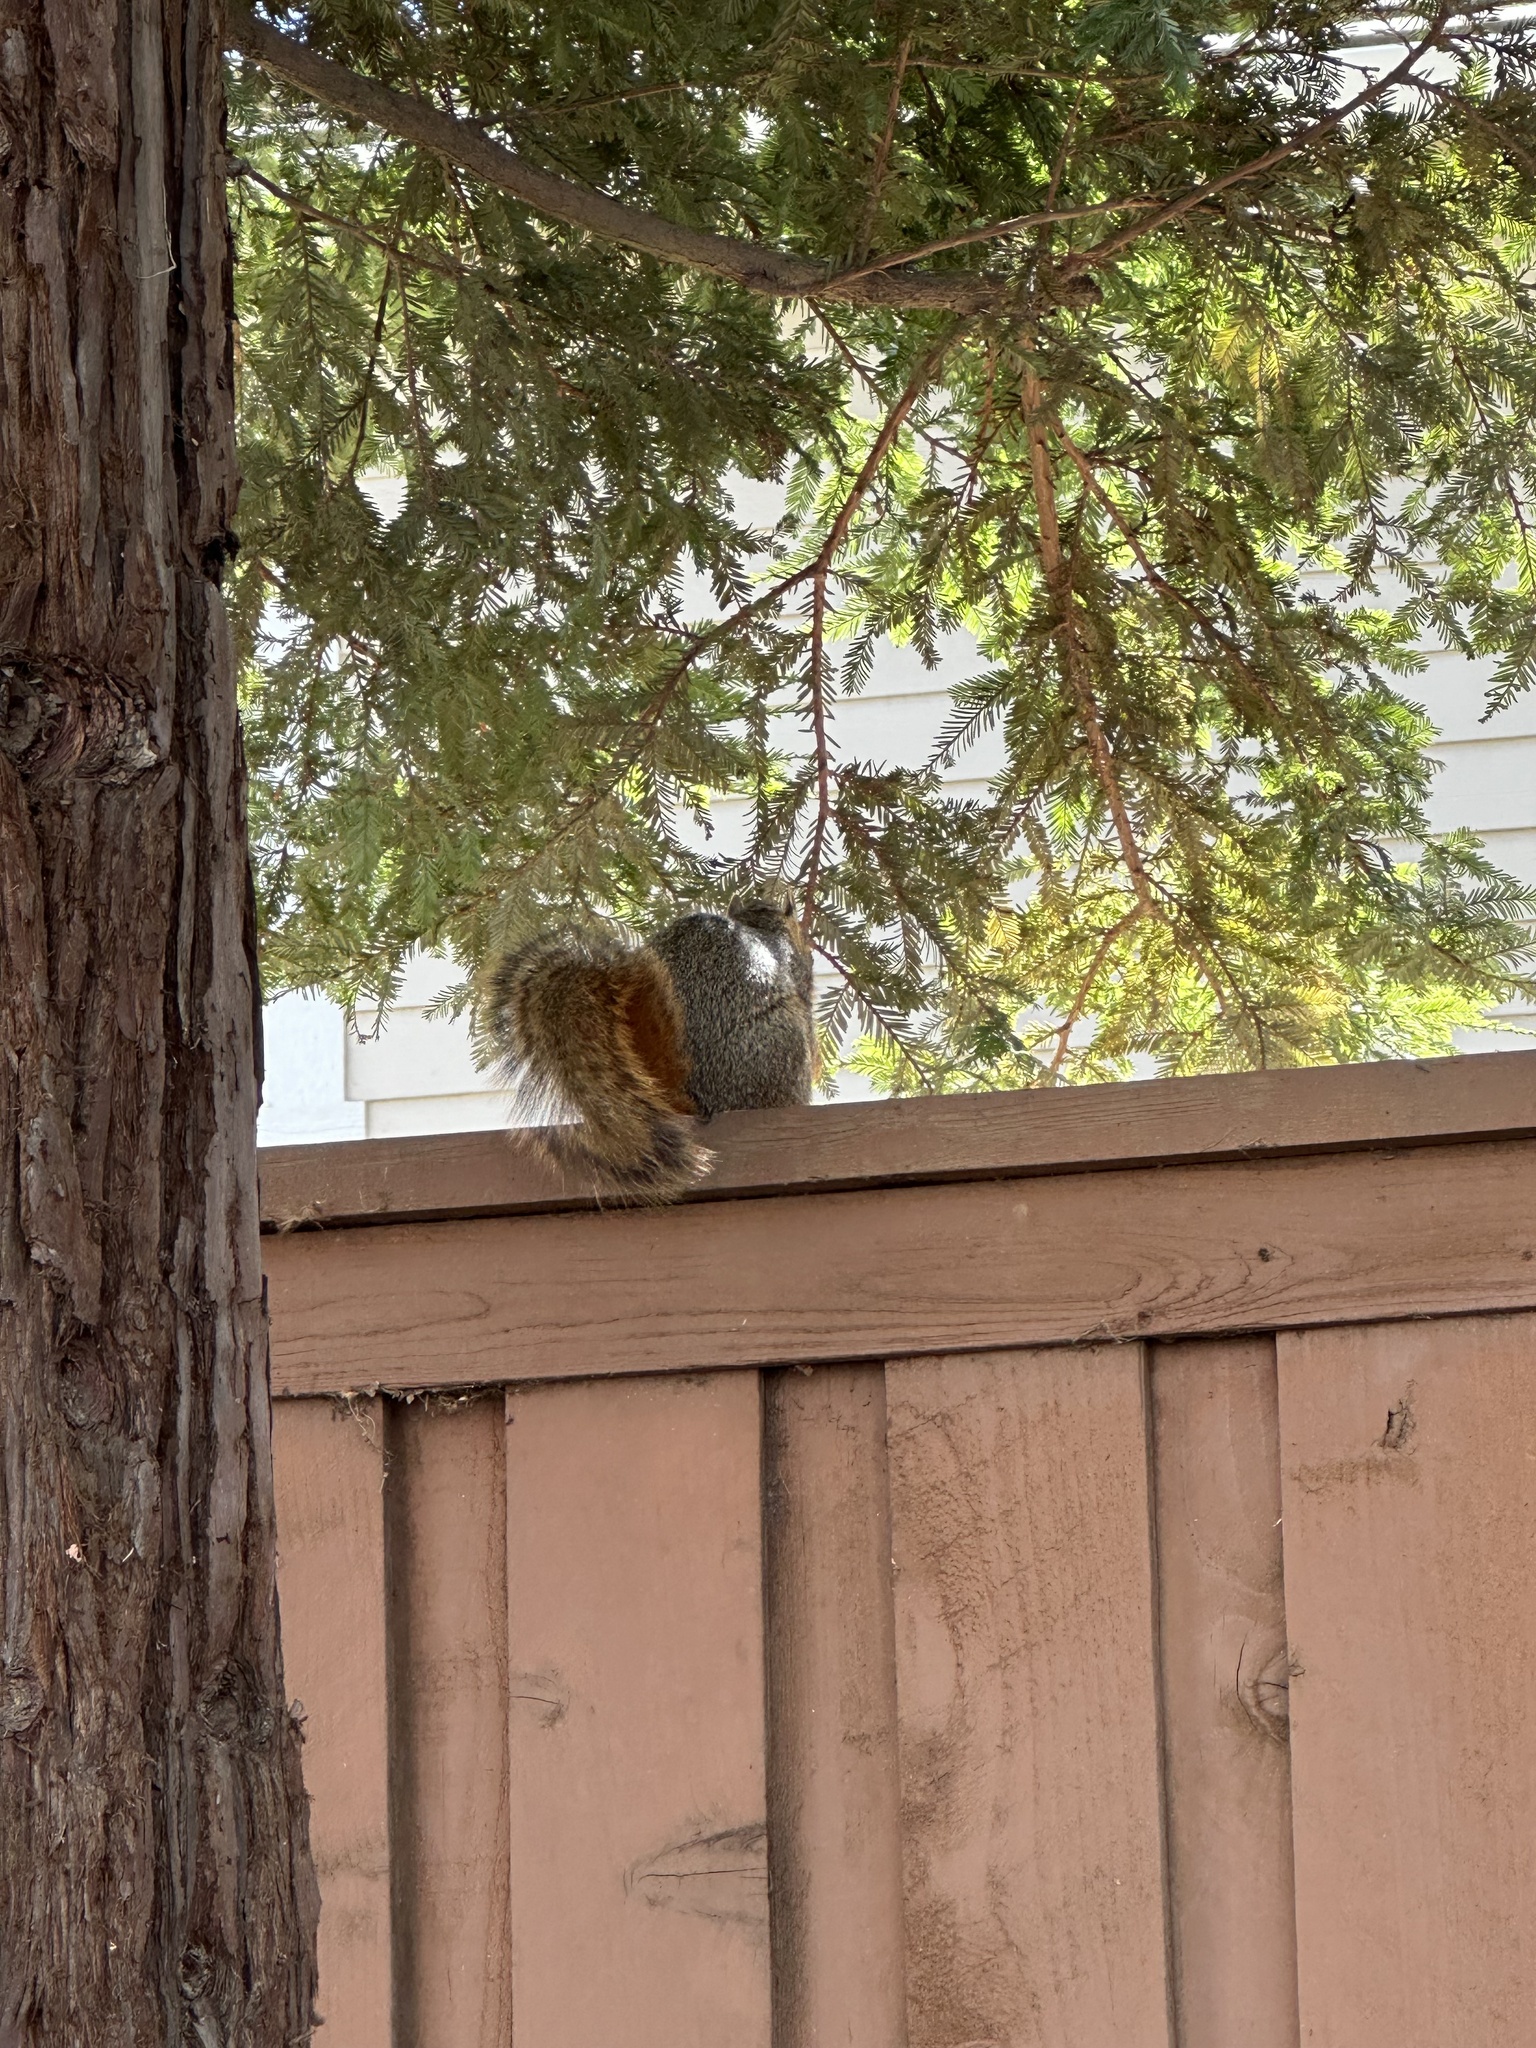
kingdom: Animalia
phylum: Chordata
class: Mammalia
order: Rodentia
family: Sciuridae
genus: Sciurus
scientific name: Sciurus niger
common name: Fox squirrel
